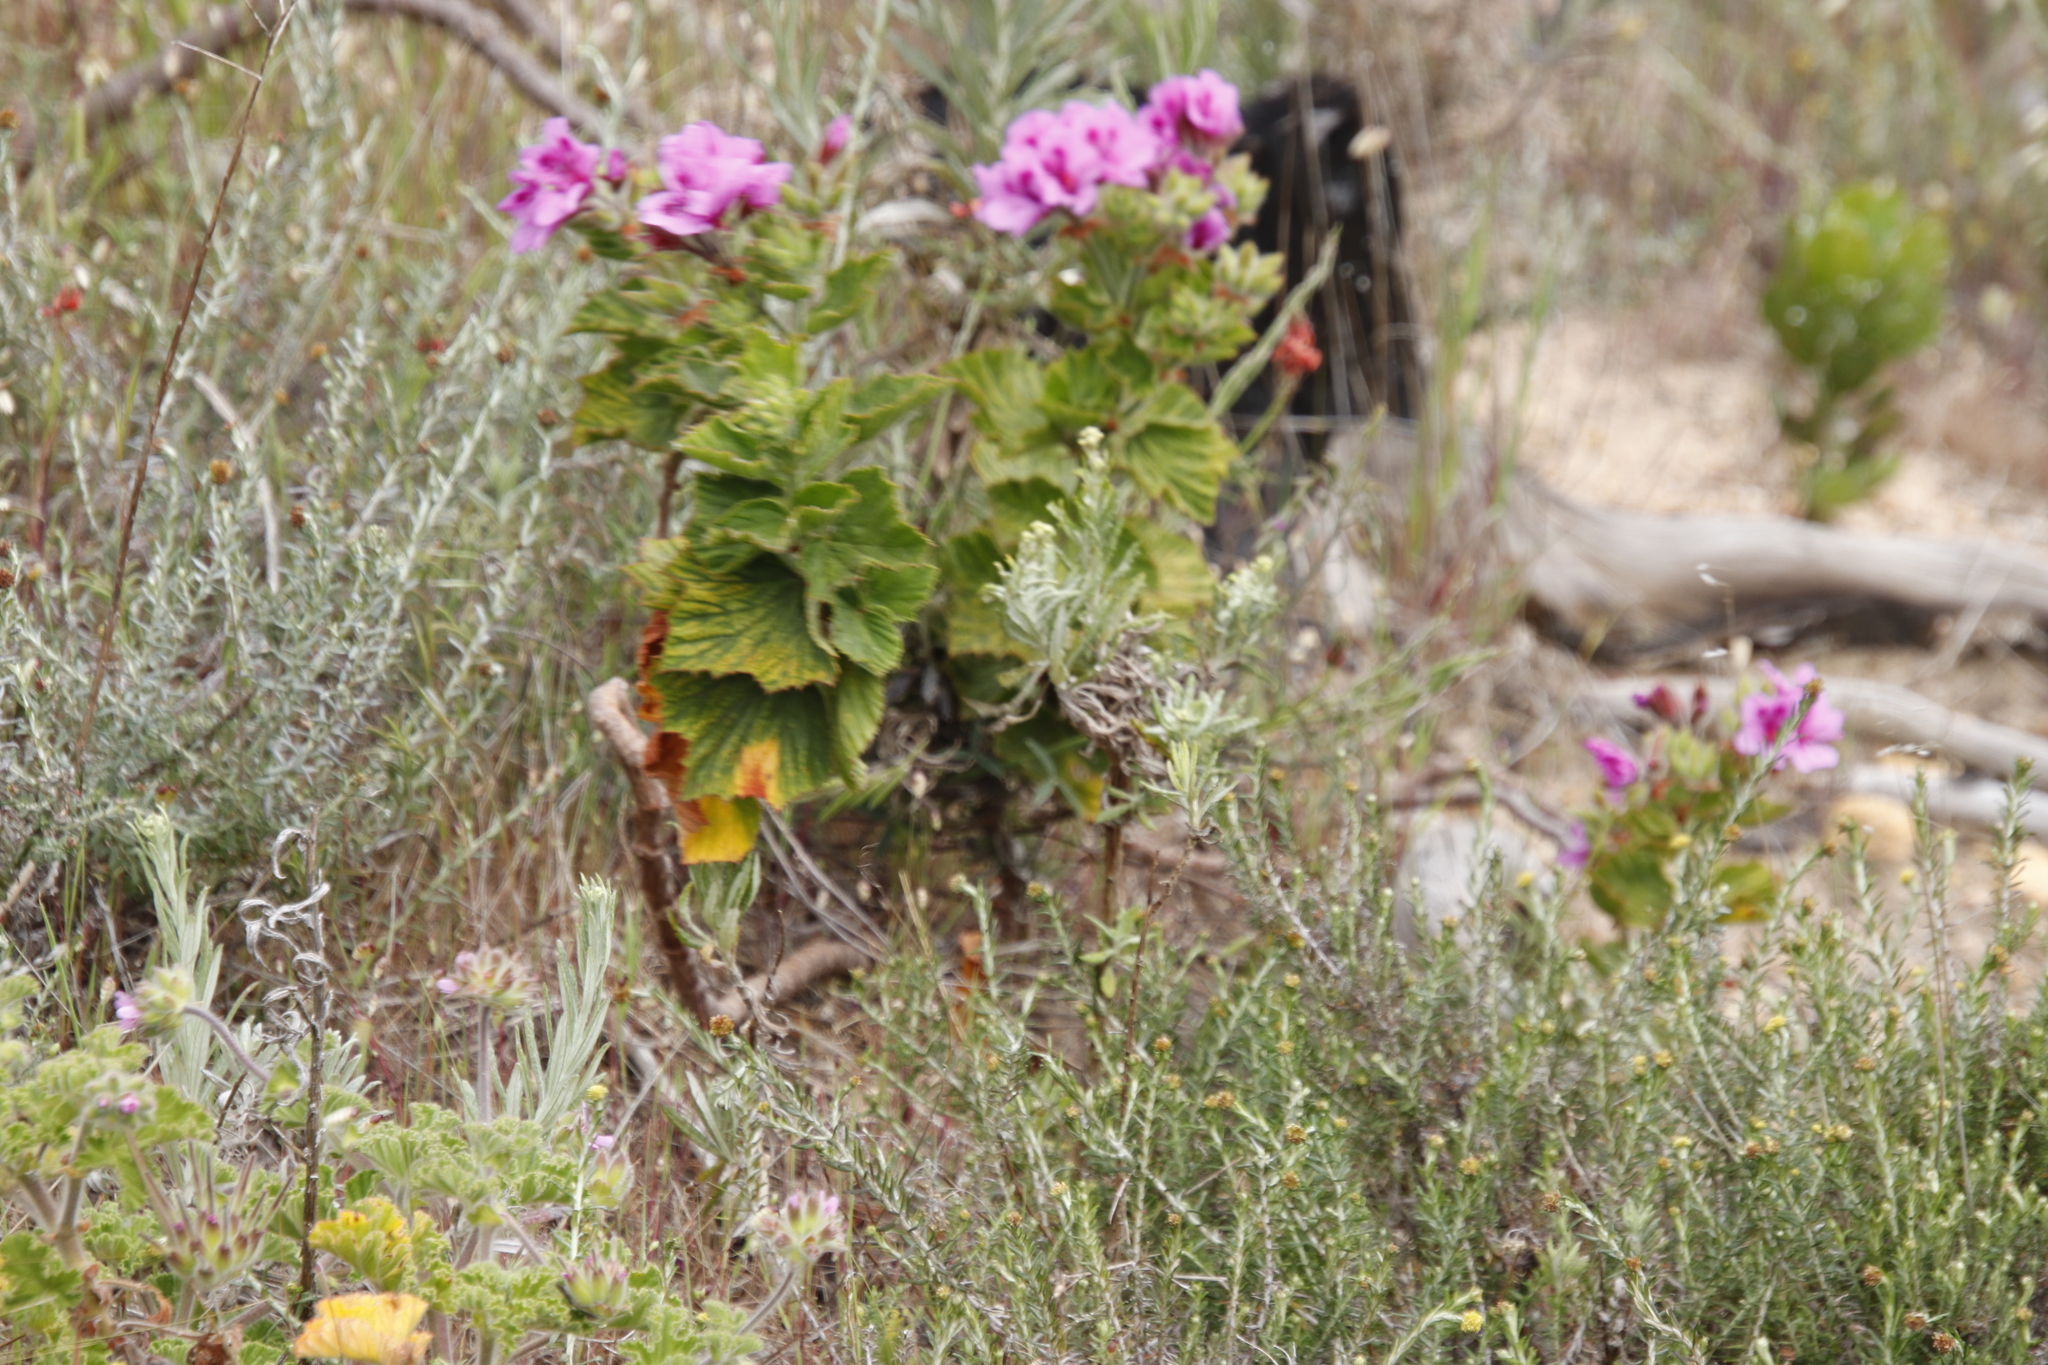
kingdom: Plantae
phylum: Tracheophyta
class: Magnoliopsida
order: Geraniales
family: Geraniaceae
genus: Pelargonium
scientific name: Pelargonium cucullatum
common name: Tree pelargonium
